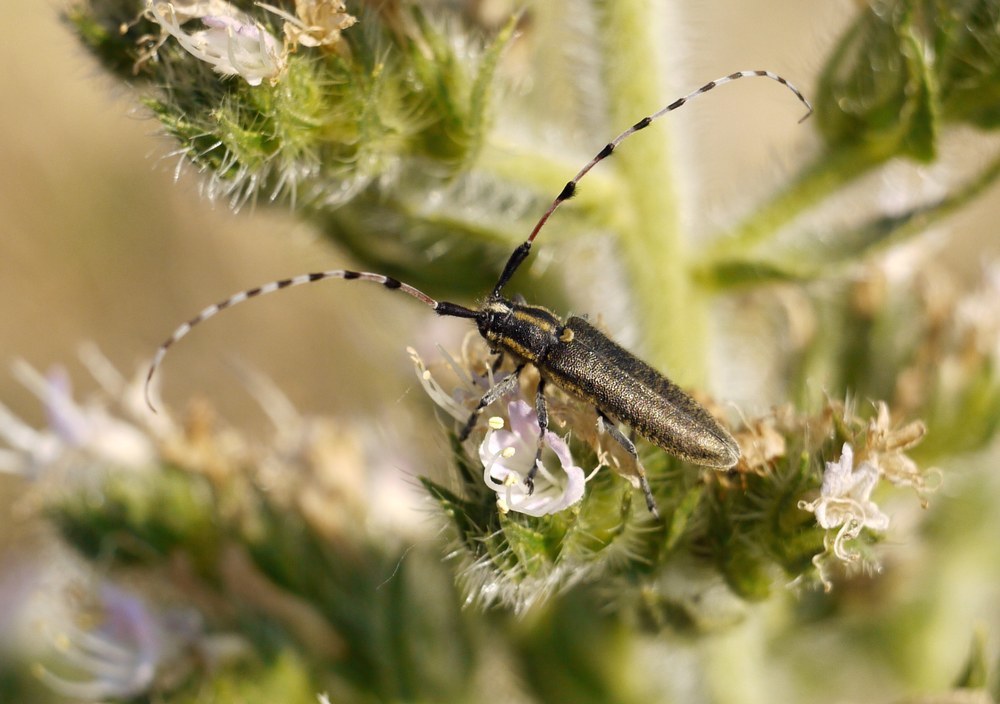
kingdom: Animalia
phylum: Arthropoda
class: Insecta
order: Coleoptera
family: Cerambycidae
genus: Agapanthia
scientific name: Agapanthia dahlii
